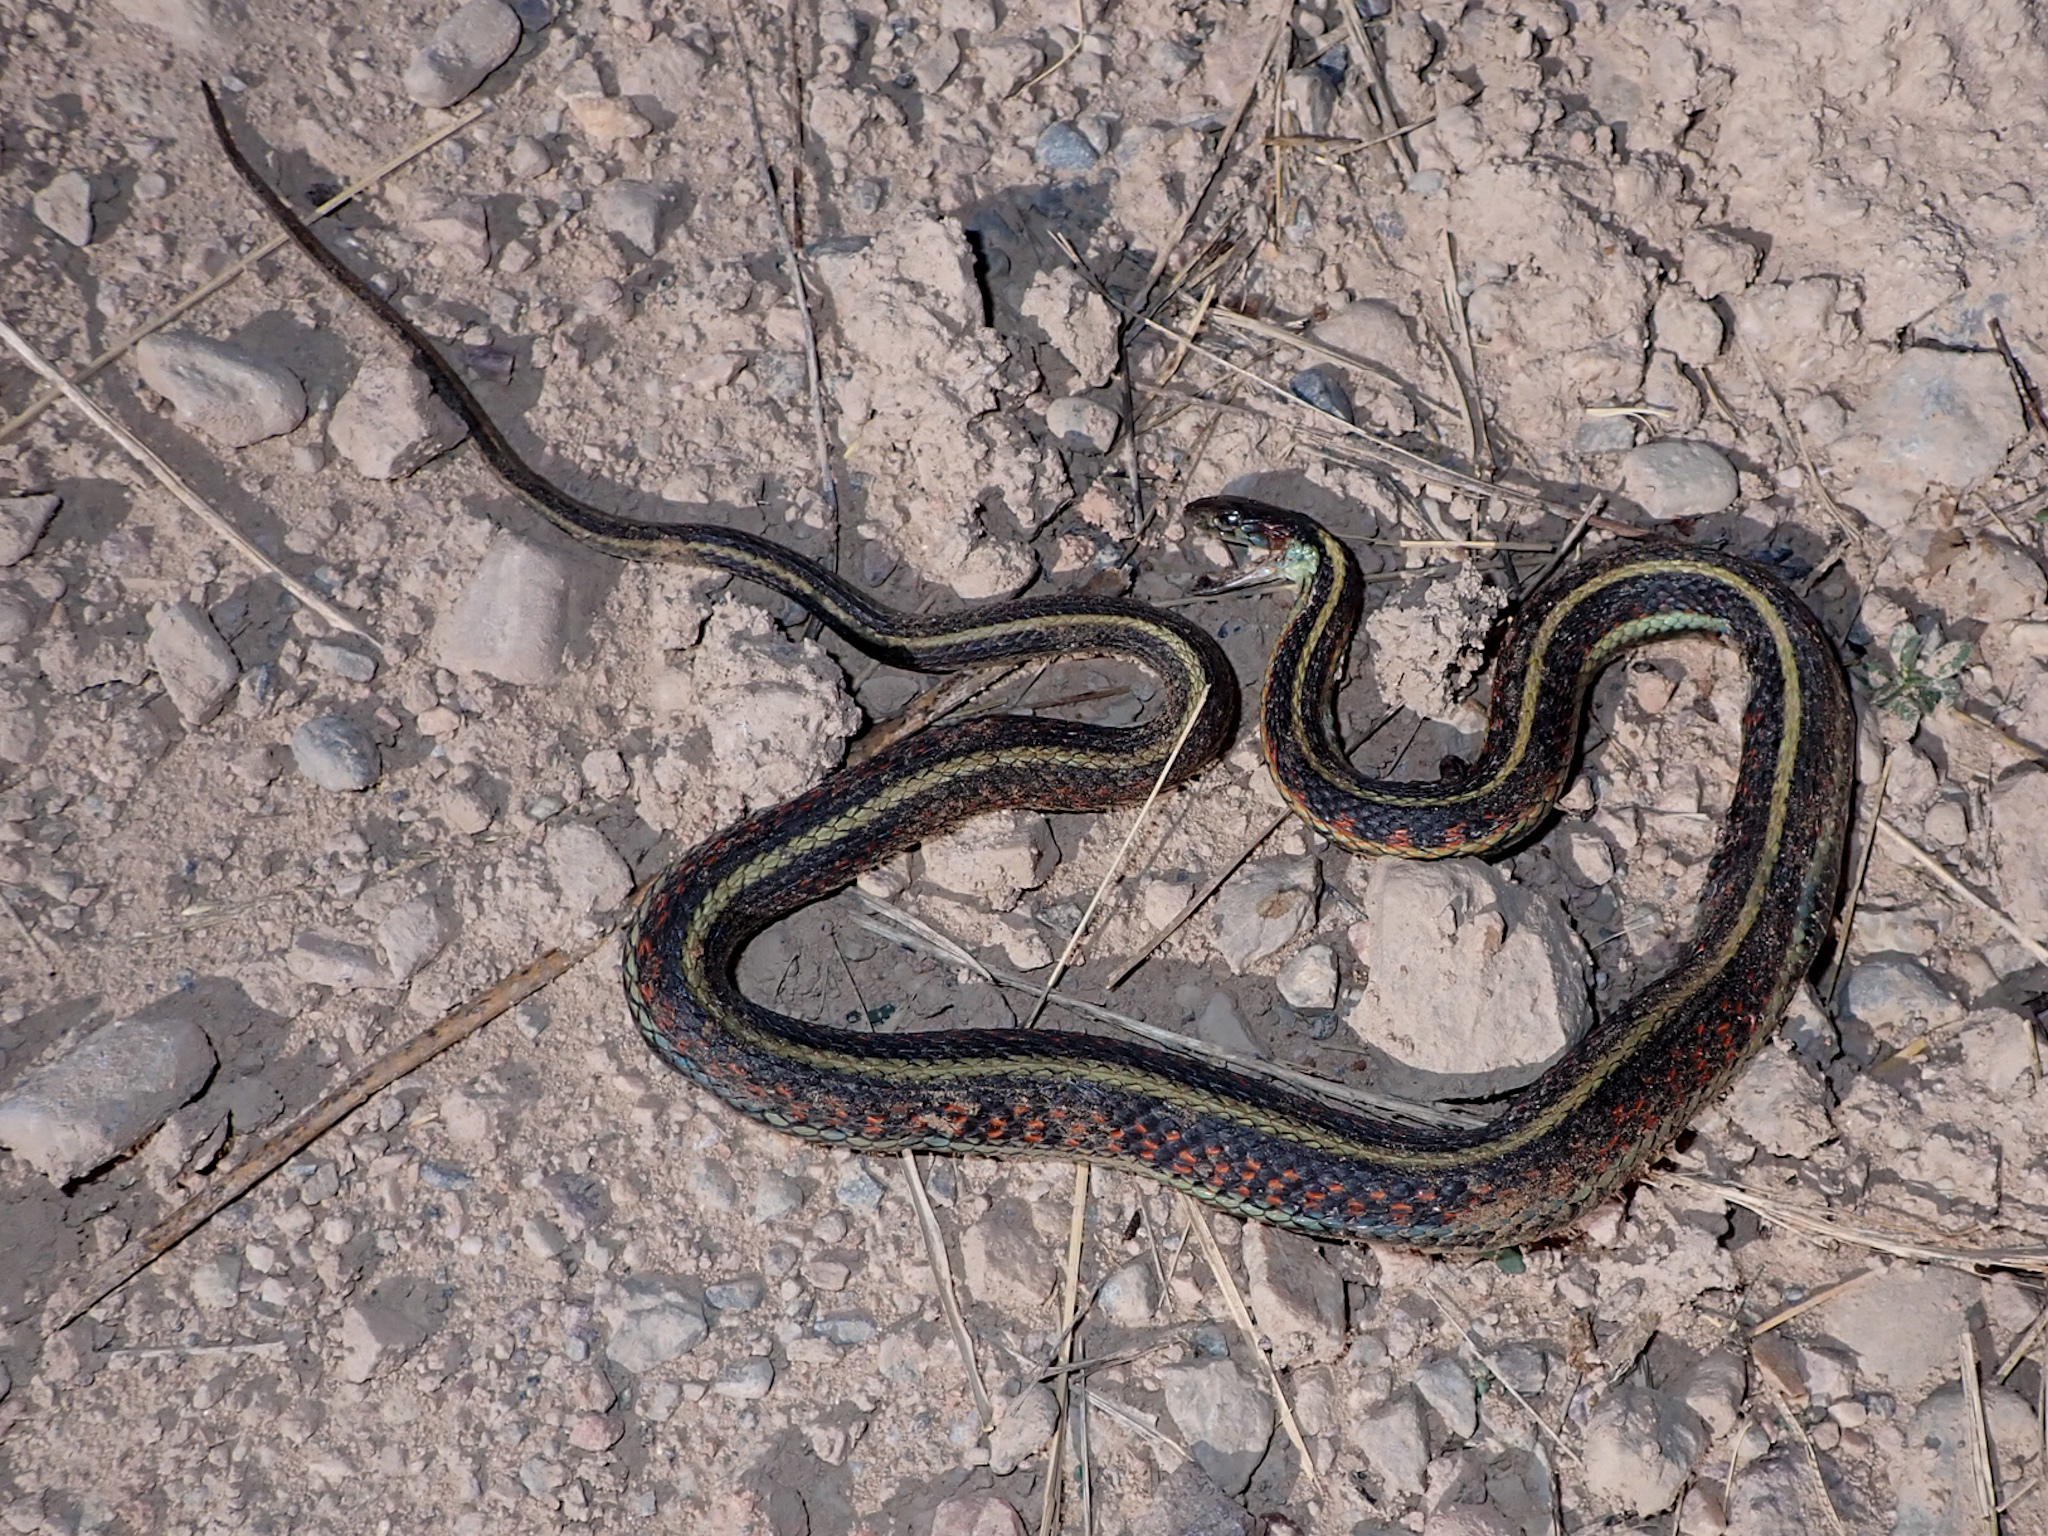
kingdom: Animalia
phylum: Chordata
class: Squamata
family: Colubridae
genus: Thamnophis
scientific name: Thamnophis sirtalis
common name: Common garter snake
